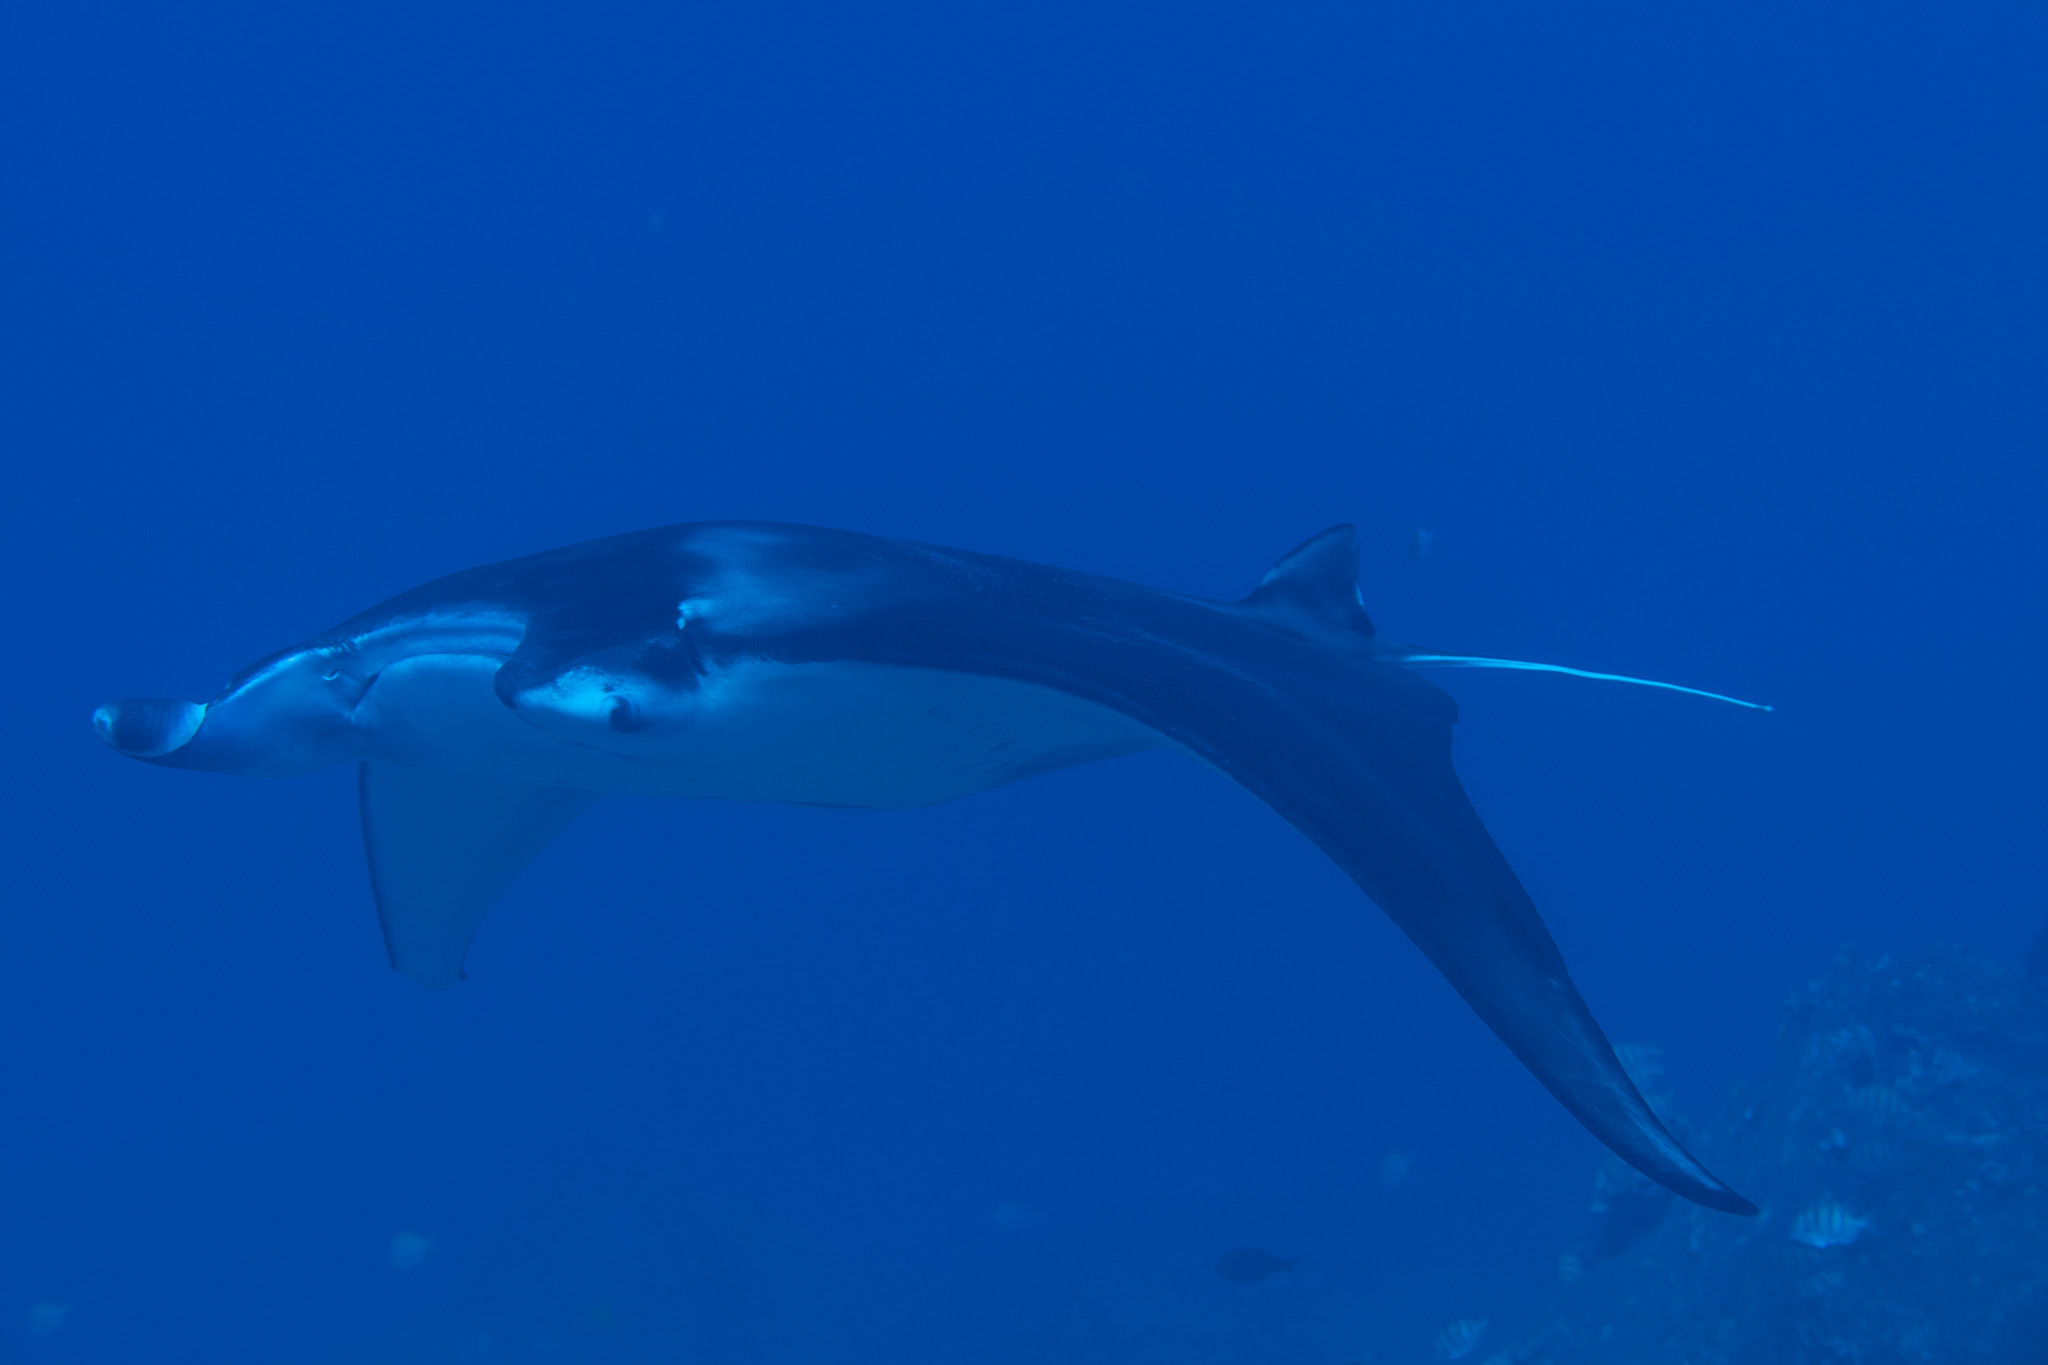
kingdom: Animalia
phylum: Chordata
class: Elasmobranchii
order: Myliobatiformes
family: Myliobatidae
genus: Mobula
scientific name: Mobula alfredi
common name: Reef manta ray
